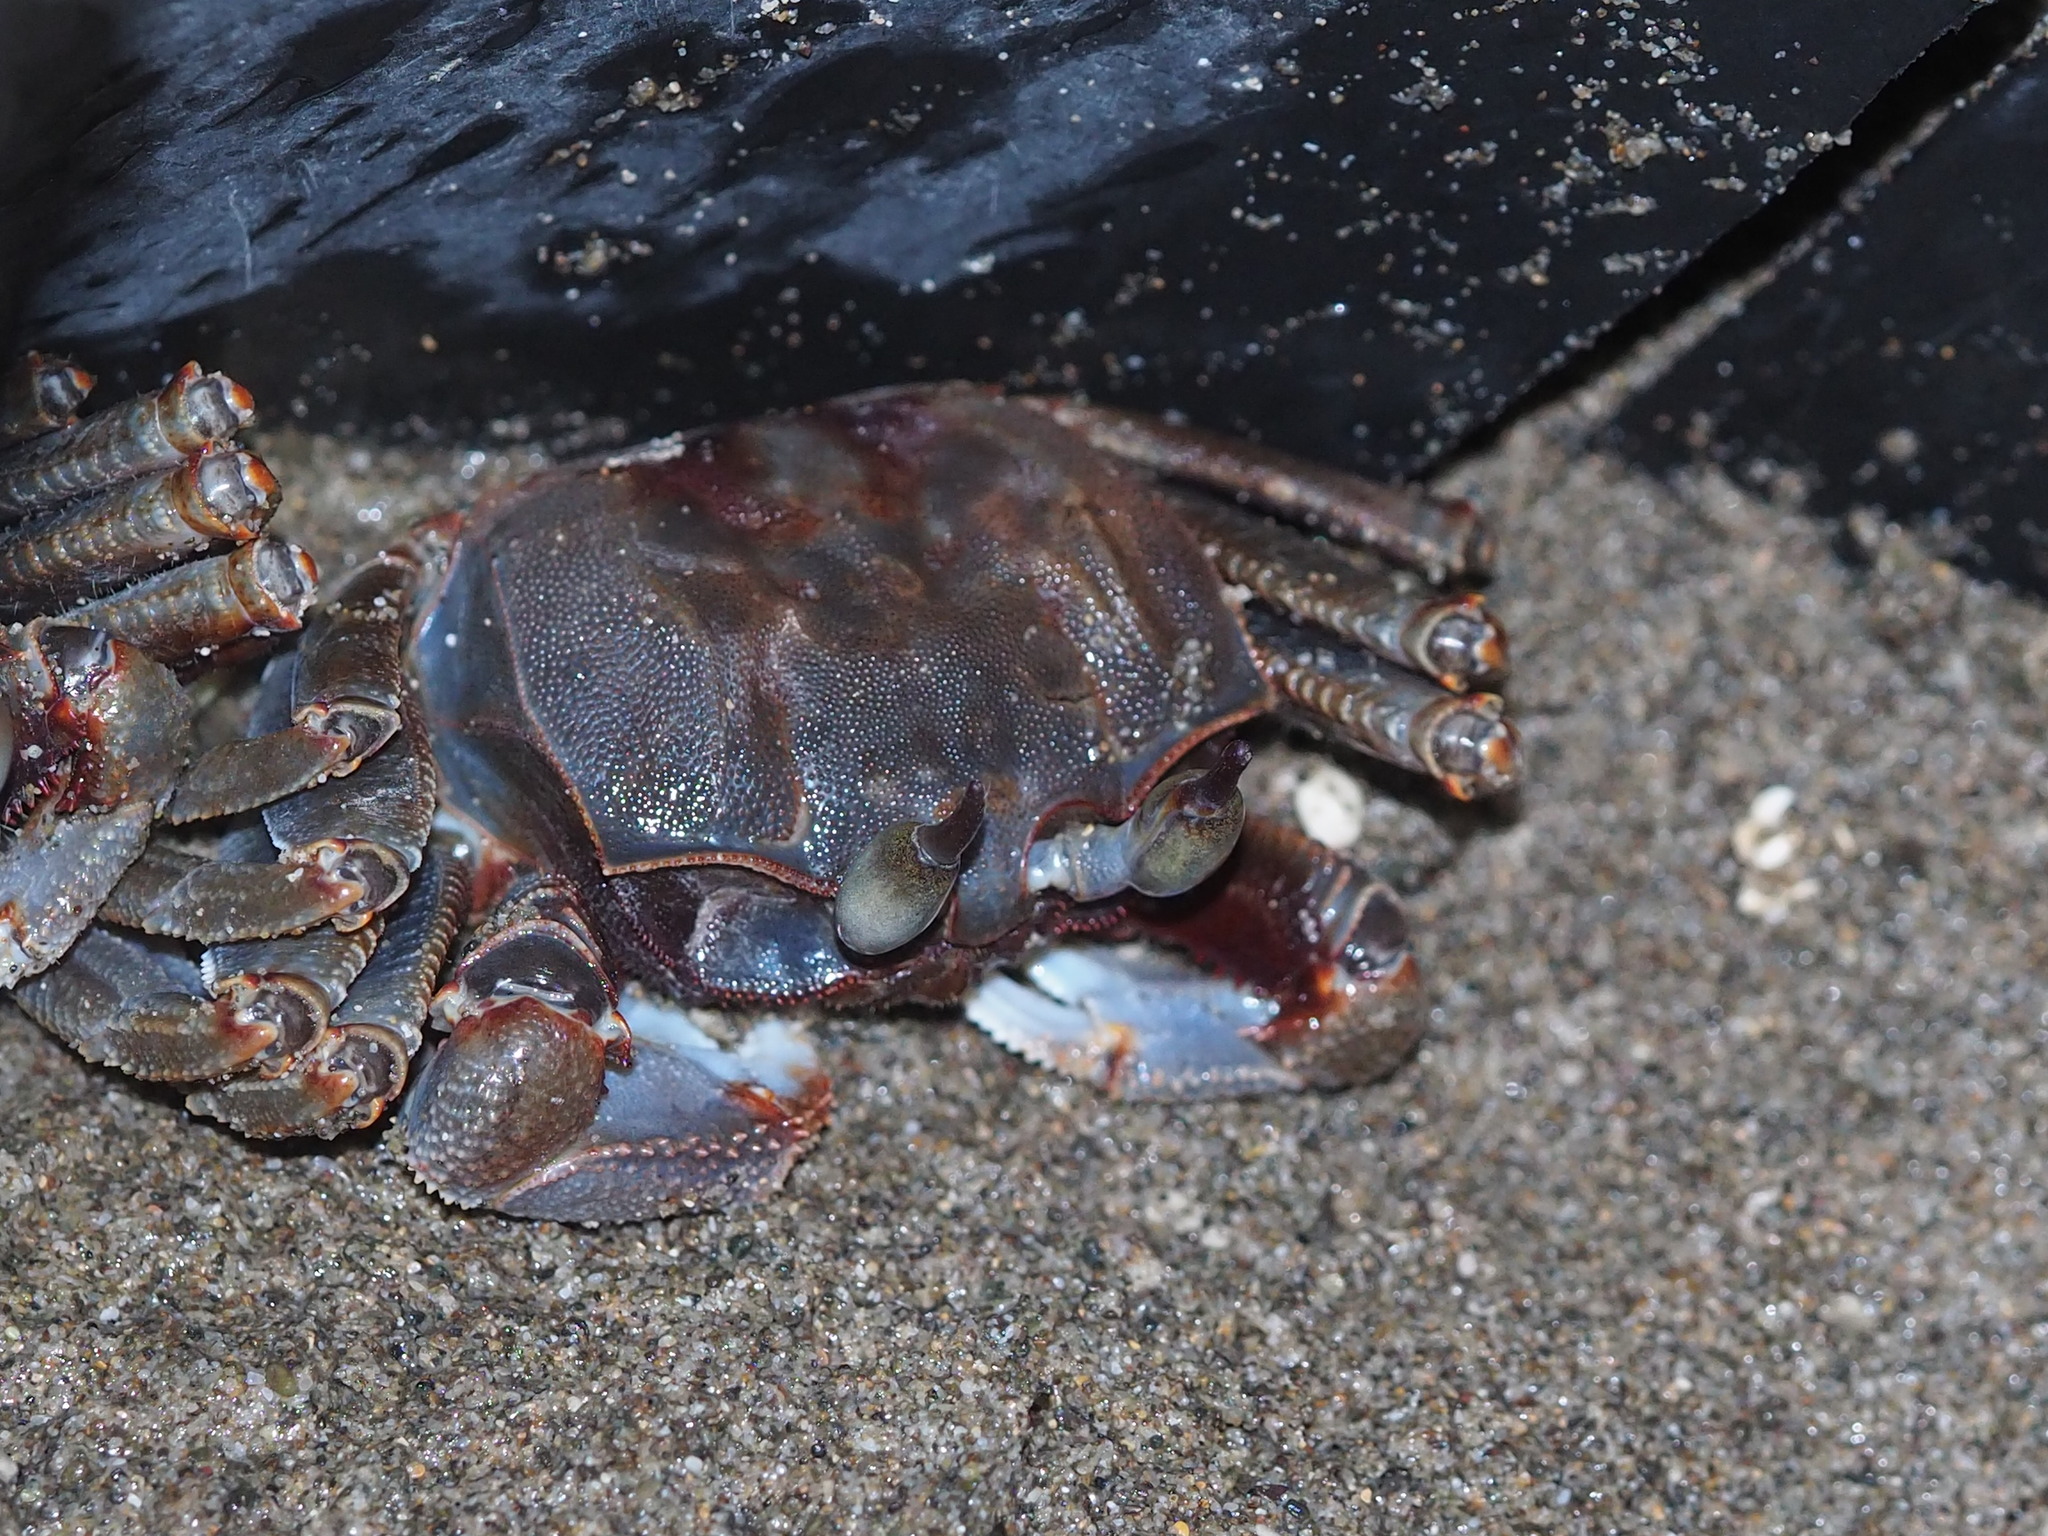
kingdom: Animalia
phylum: Arthropoda
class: Malacostraca
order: Decapoda
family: Ocypodidae
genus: Ocypode
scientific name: Ocypode ceratophthalmus
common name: Indo-pacific ghost crab
